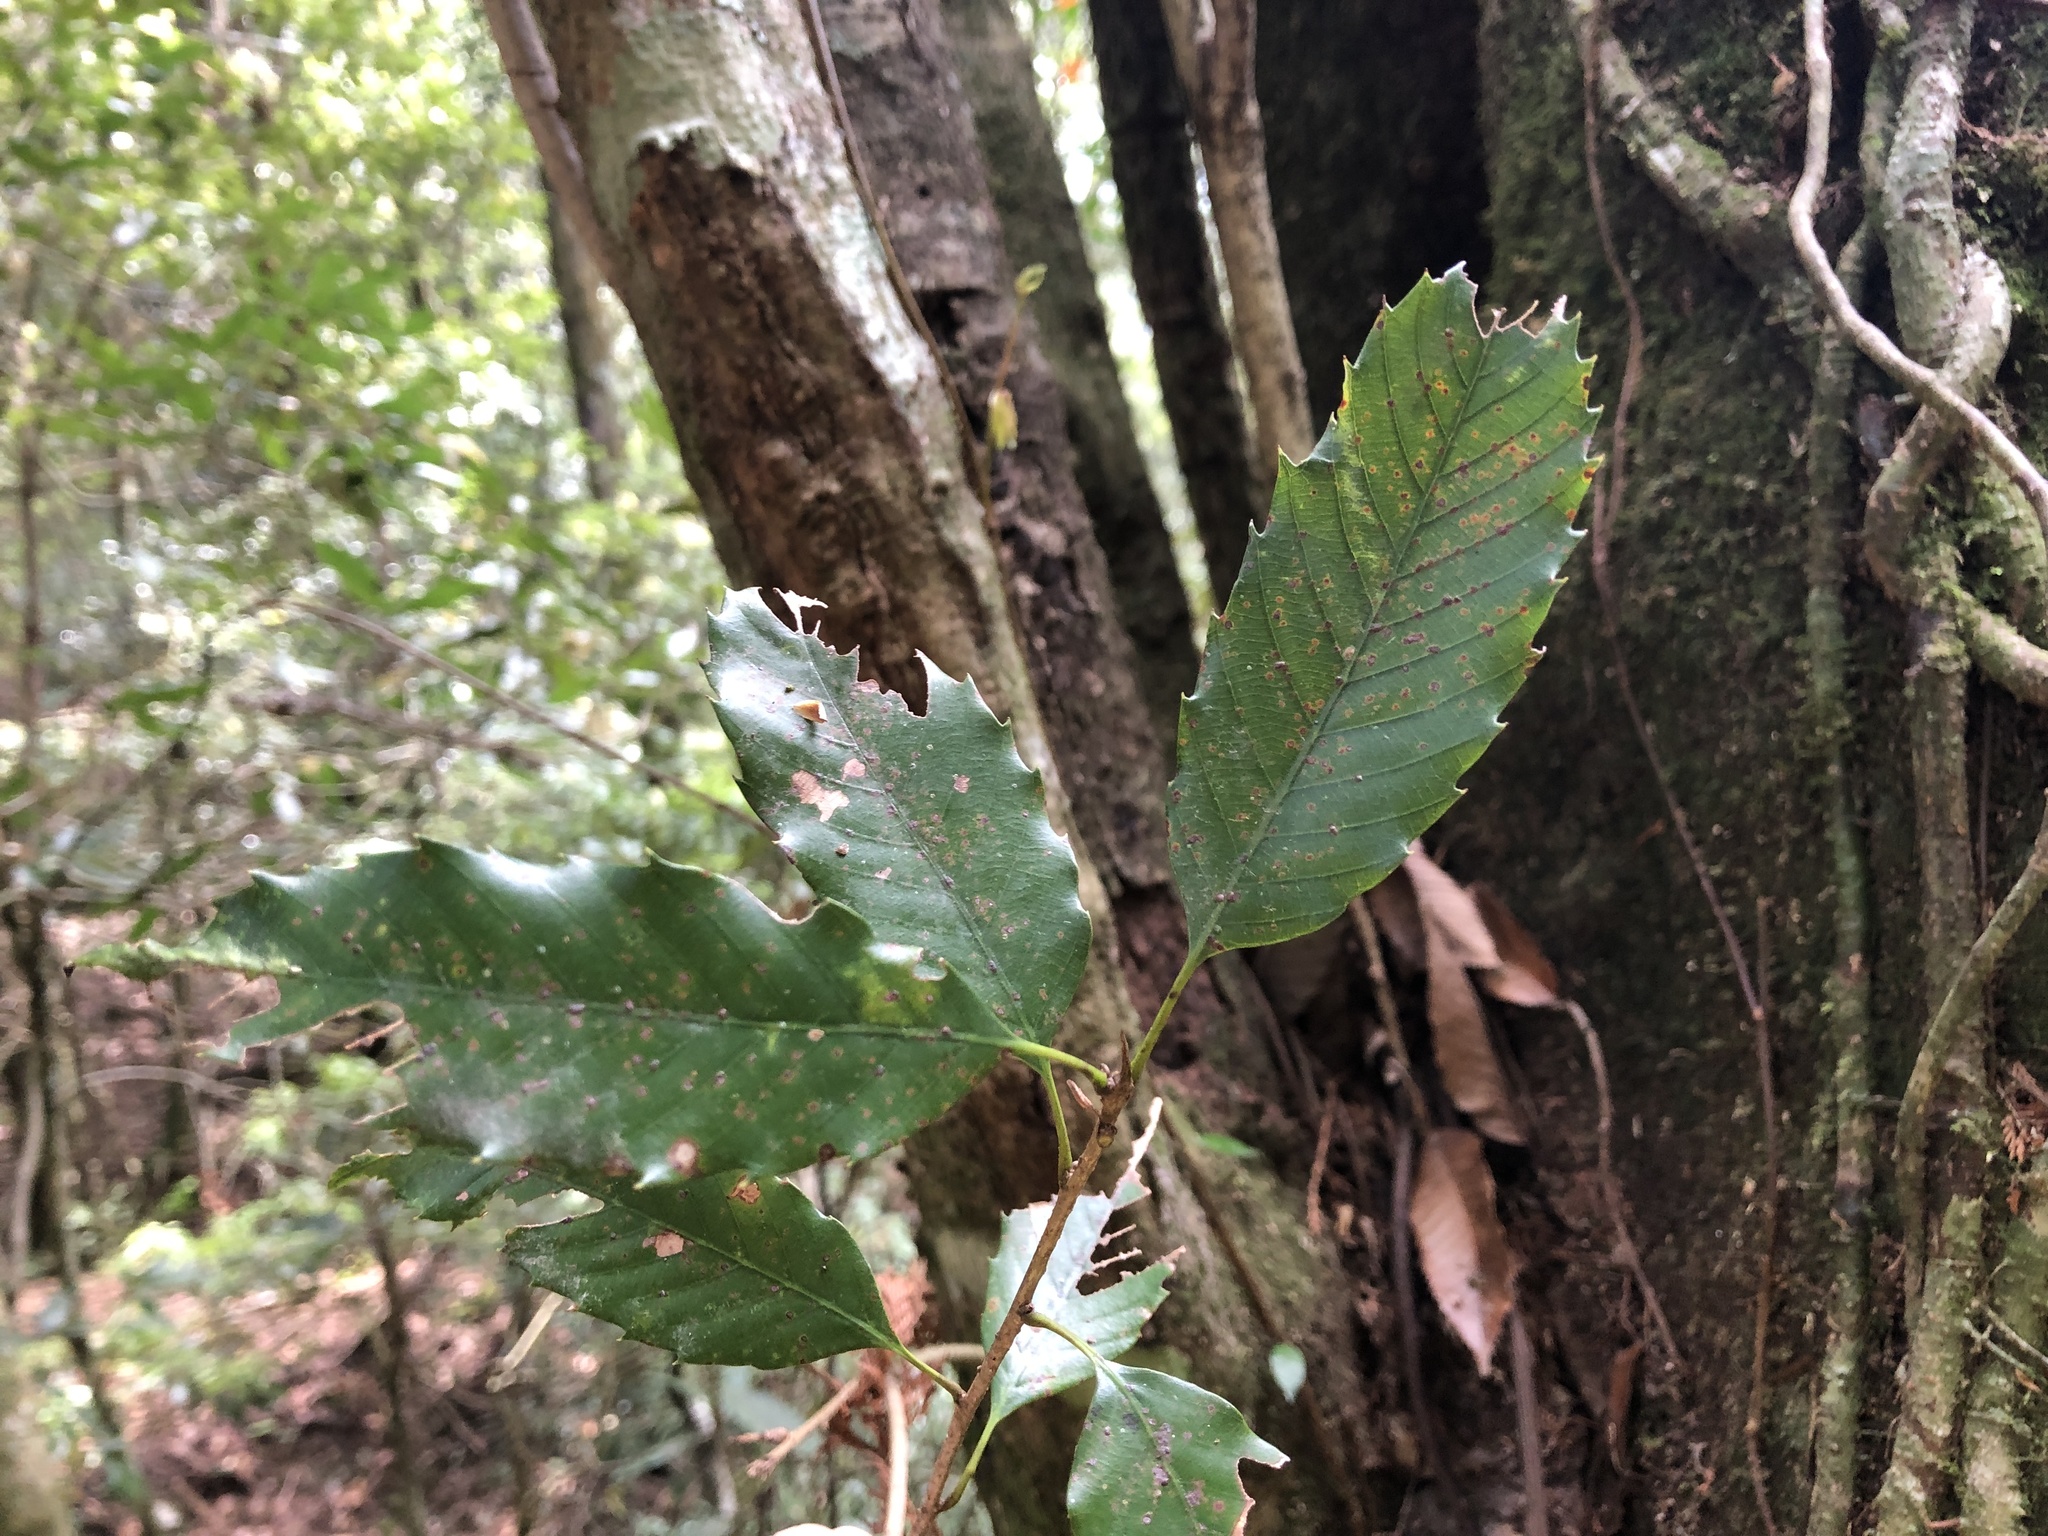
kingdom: Plantae
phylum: Tracheophyta
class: Magnoliopsida
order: Fagales
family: Fagaceae
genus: Quercus
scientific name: Quercus stenophylloides
